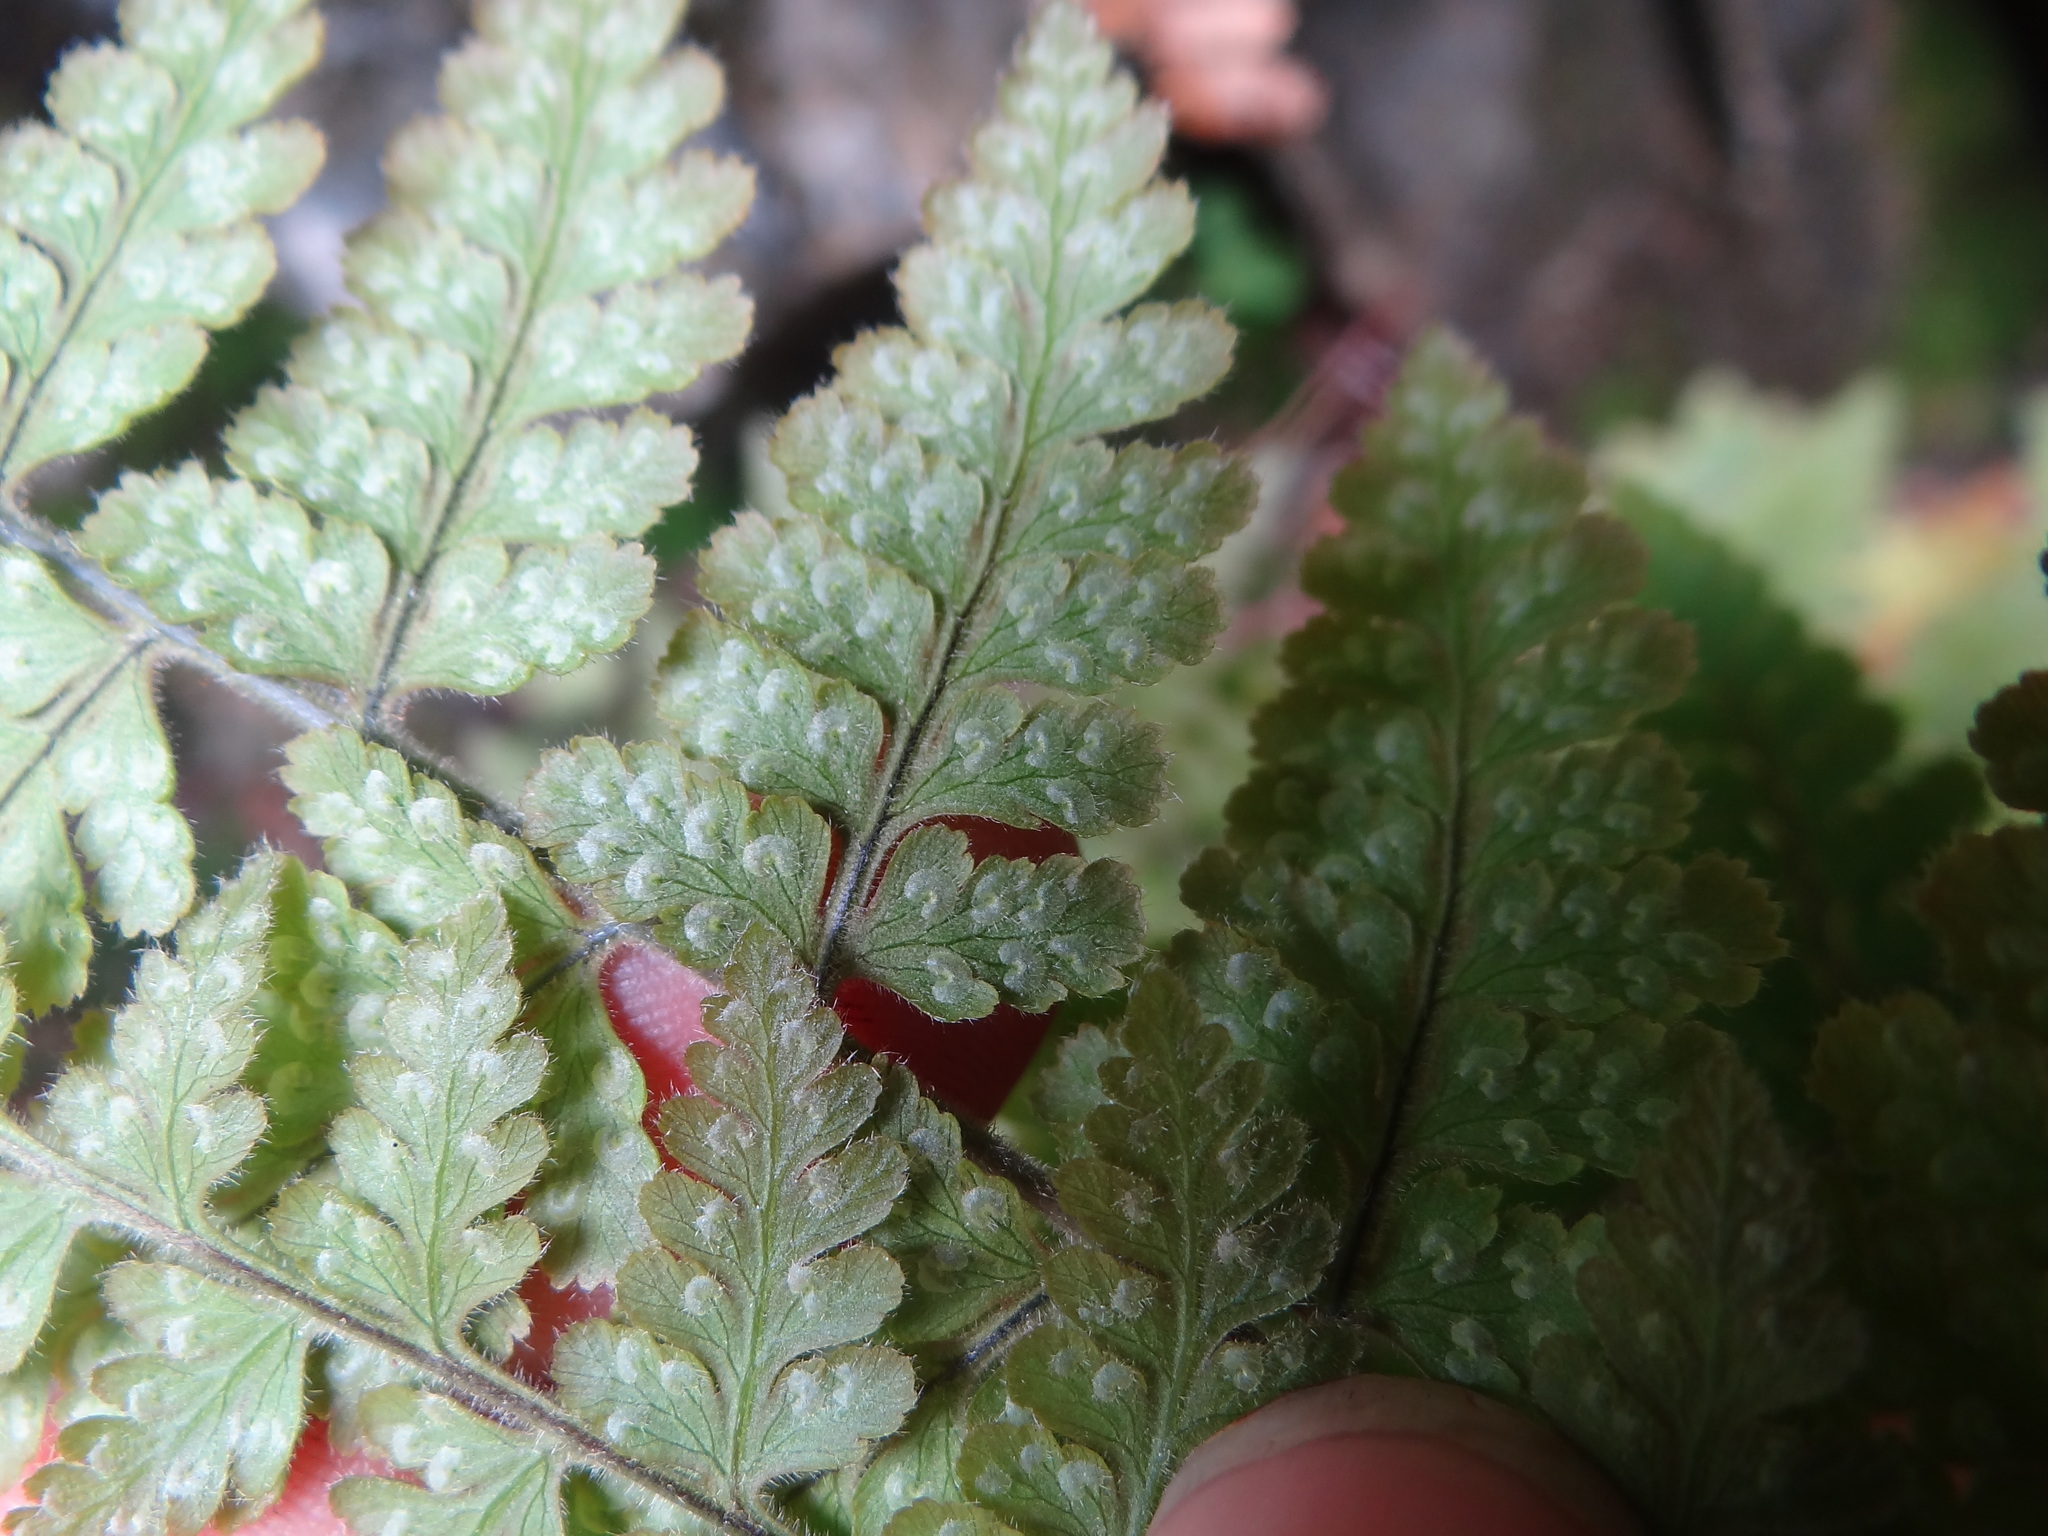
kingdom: Plantae
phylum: Tracheophyta
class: Polypodiopsida
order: Polypodiales
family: Hypodematiaceae
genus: Hypodematium
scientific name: Hypodematium shingii
